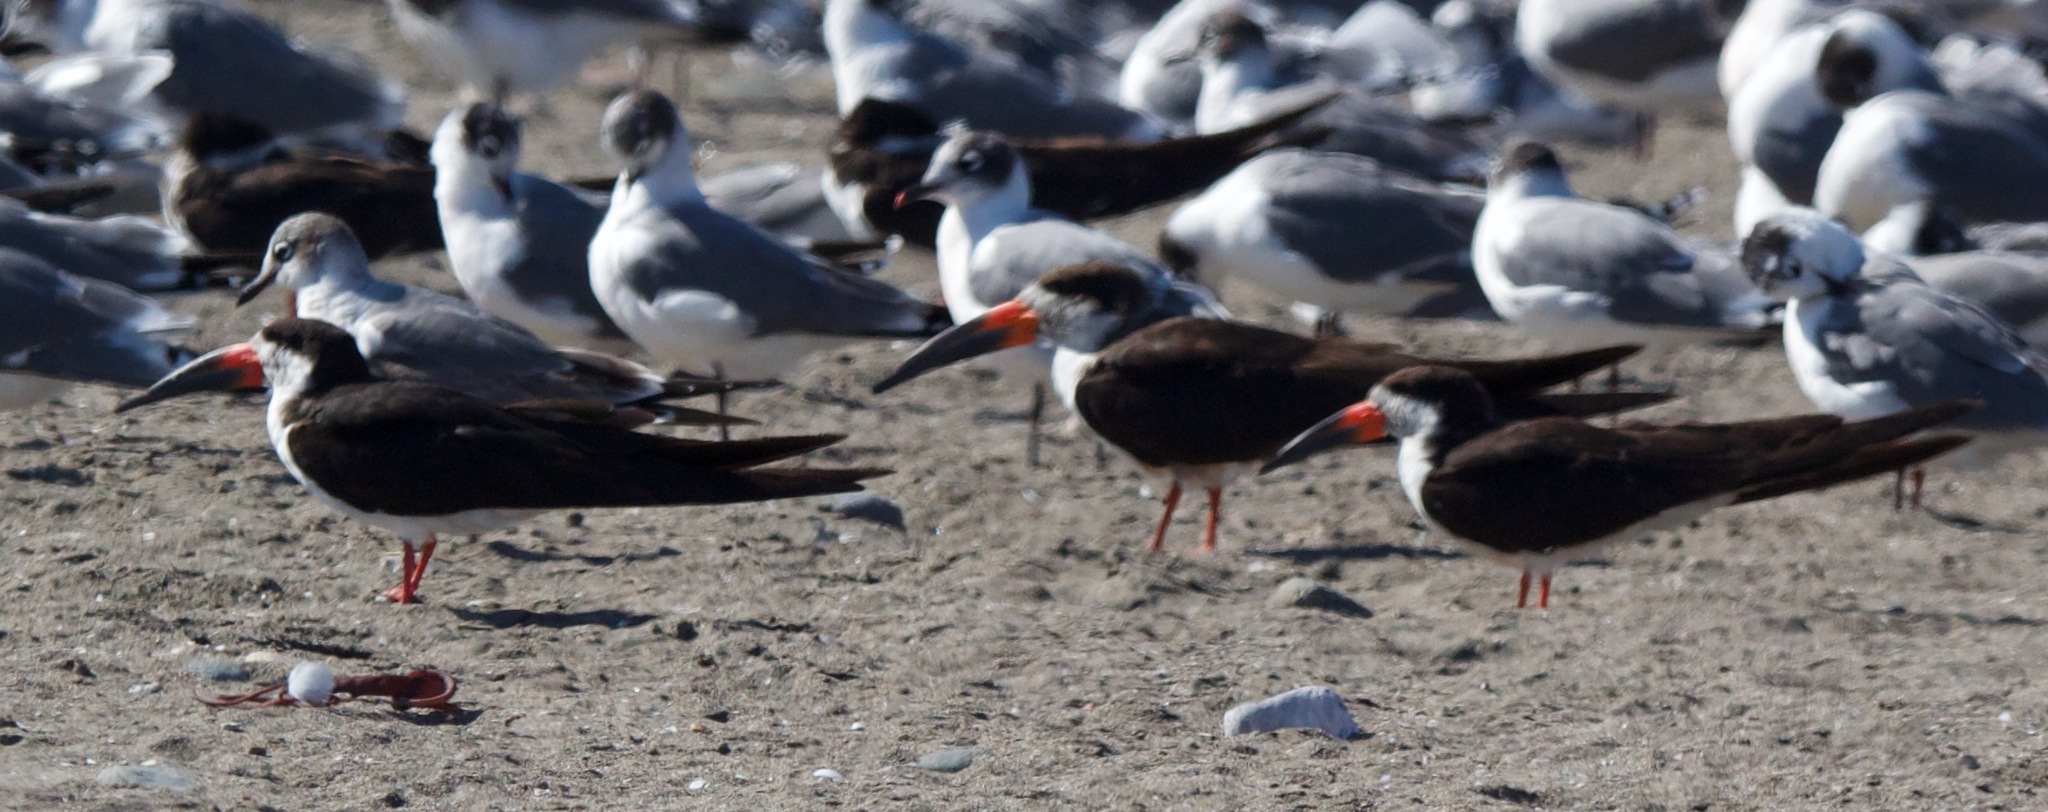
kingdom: Animalia
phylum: Chordata
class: Aves
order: Charadriiformes
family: Laridae
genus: Rynchops
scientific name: Rynchops niger
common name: Black skimmer
